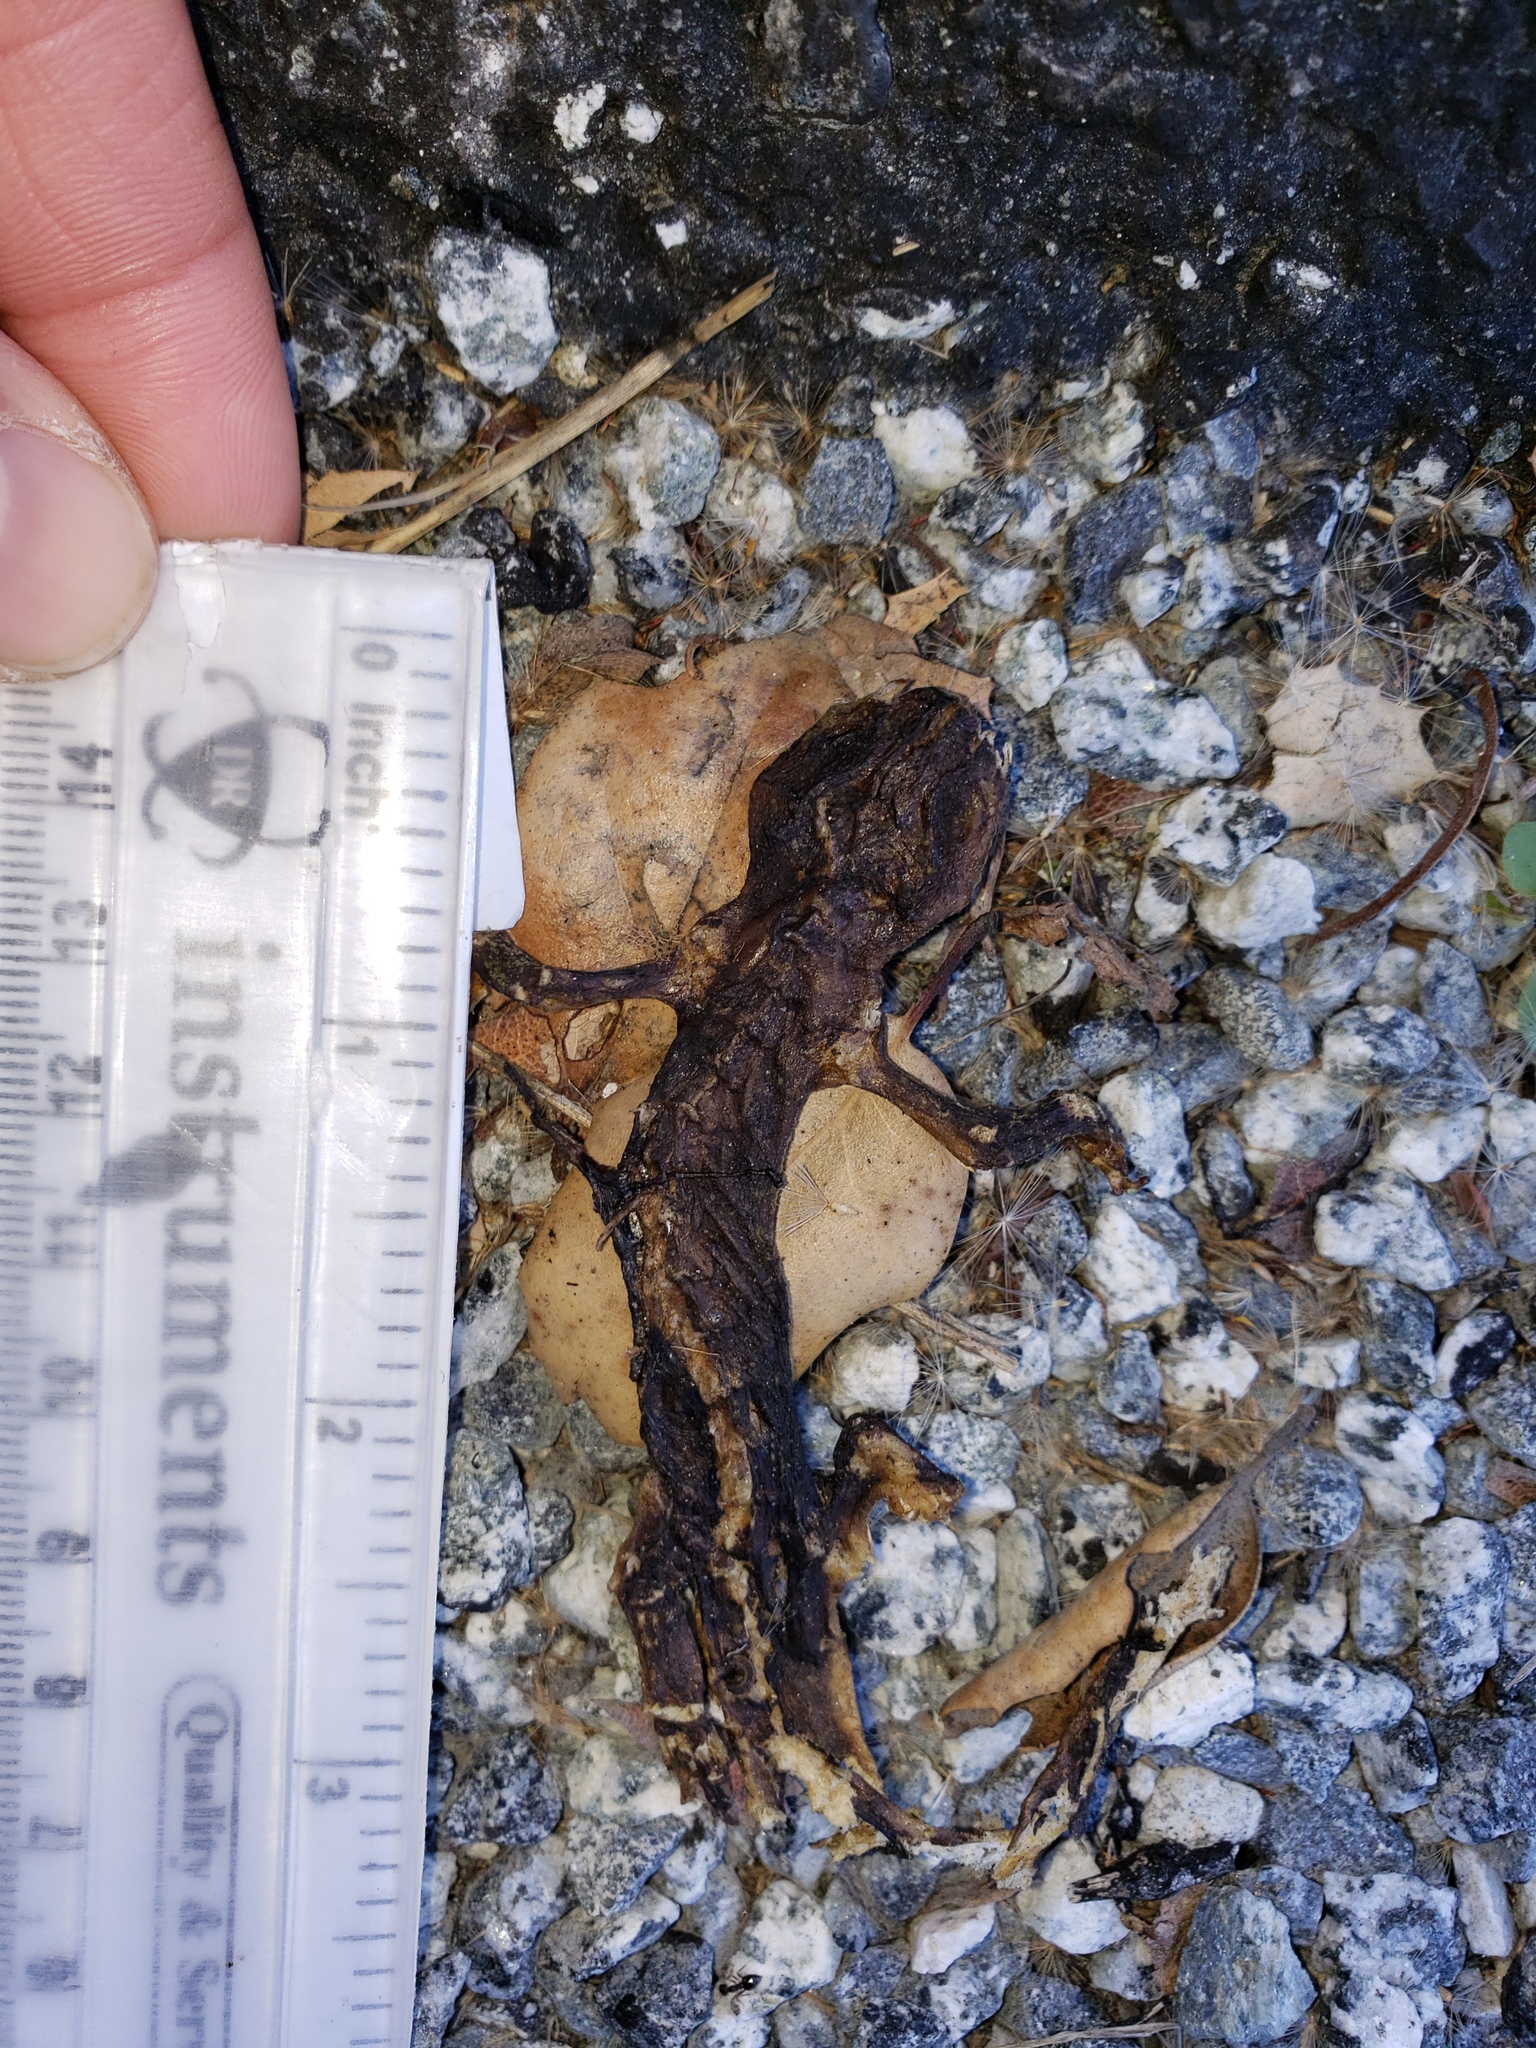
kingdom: Animalia
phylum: Chordata
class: Amphibia
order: Caudata
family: Salamandridae
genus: Taricha
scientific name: Taricha
